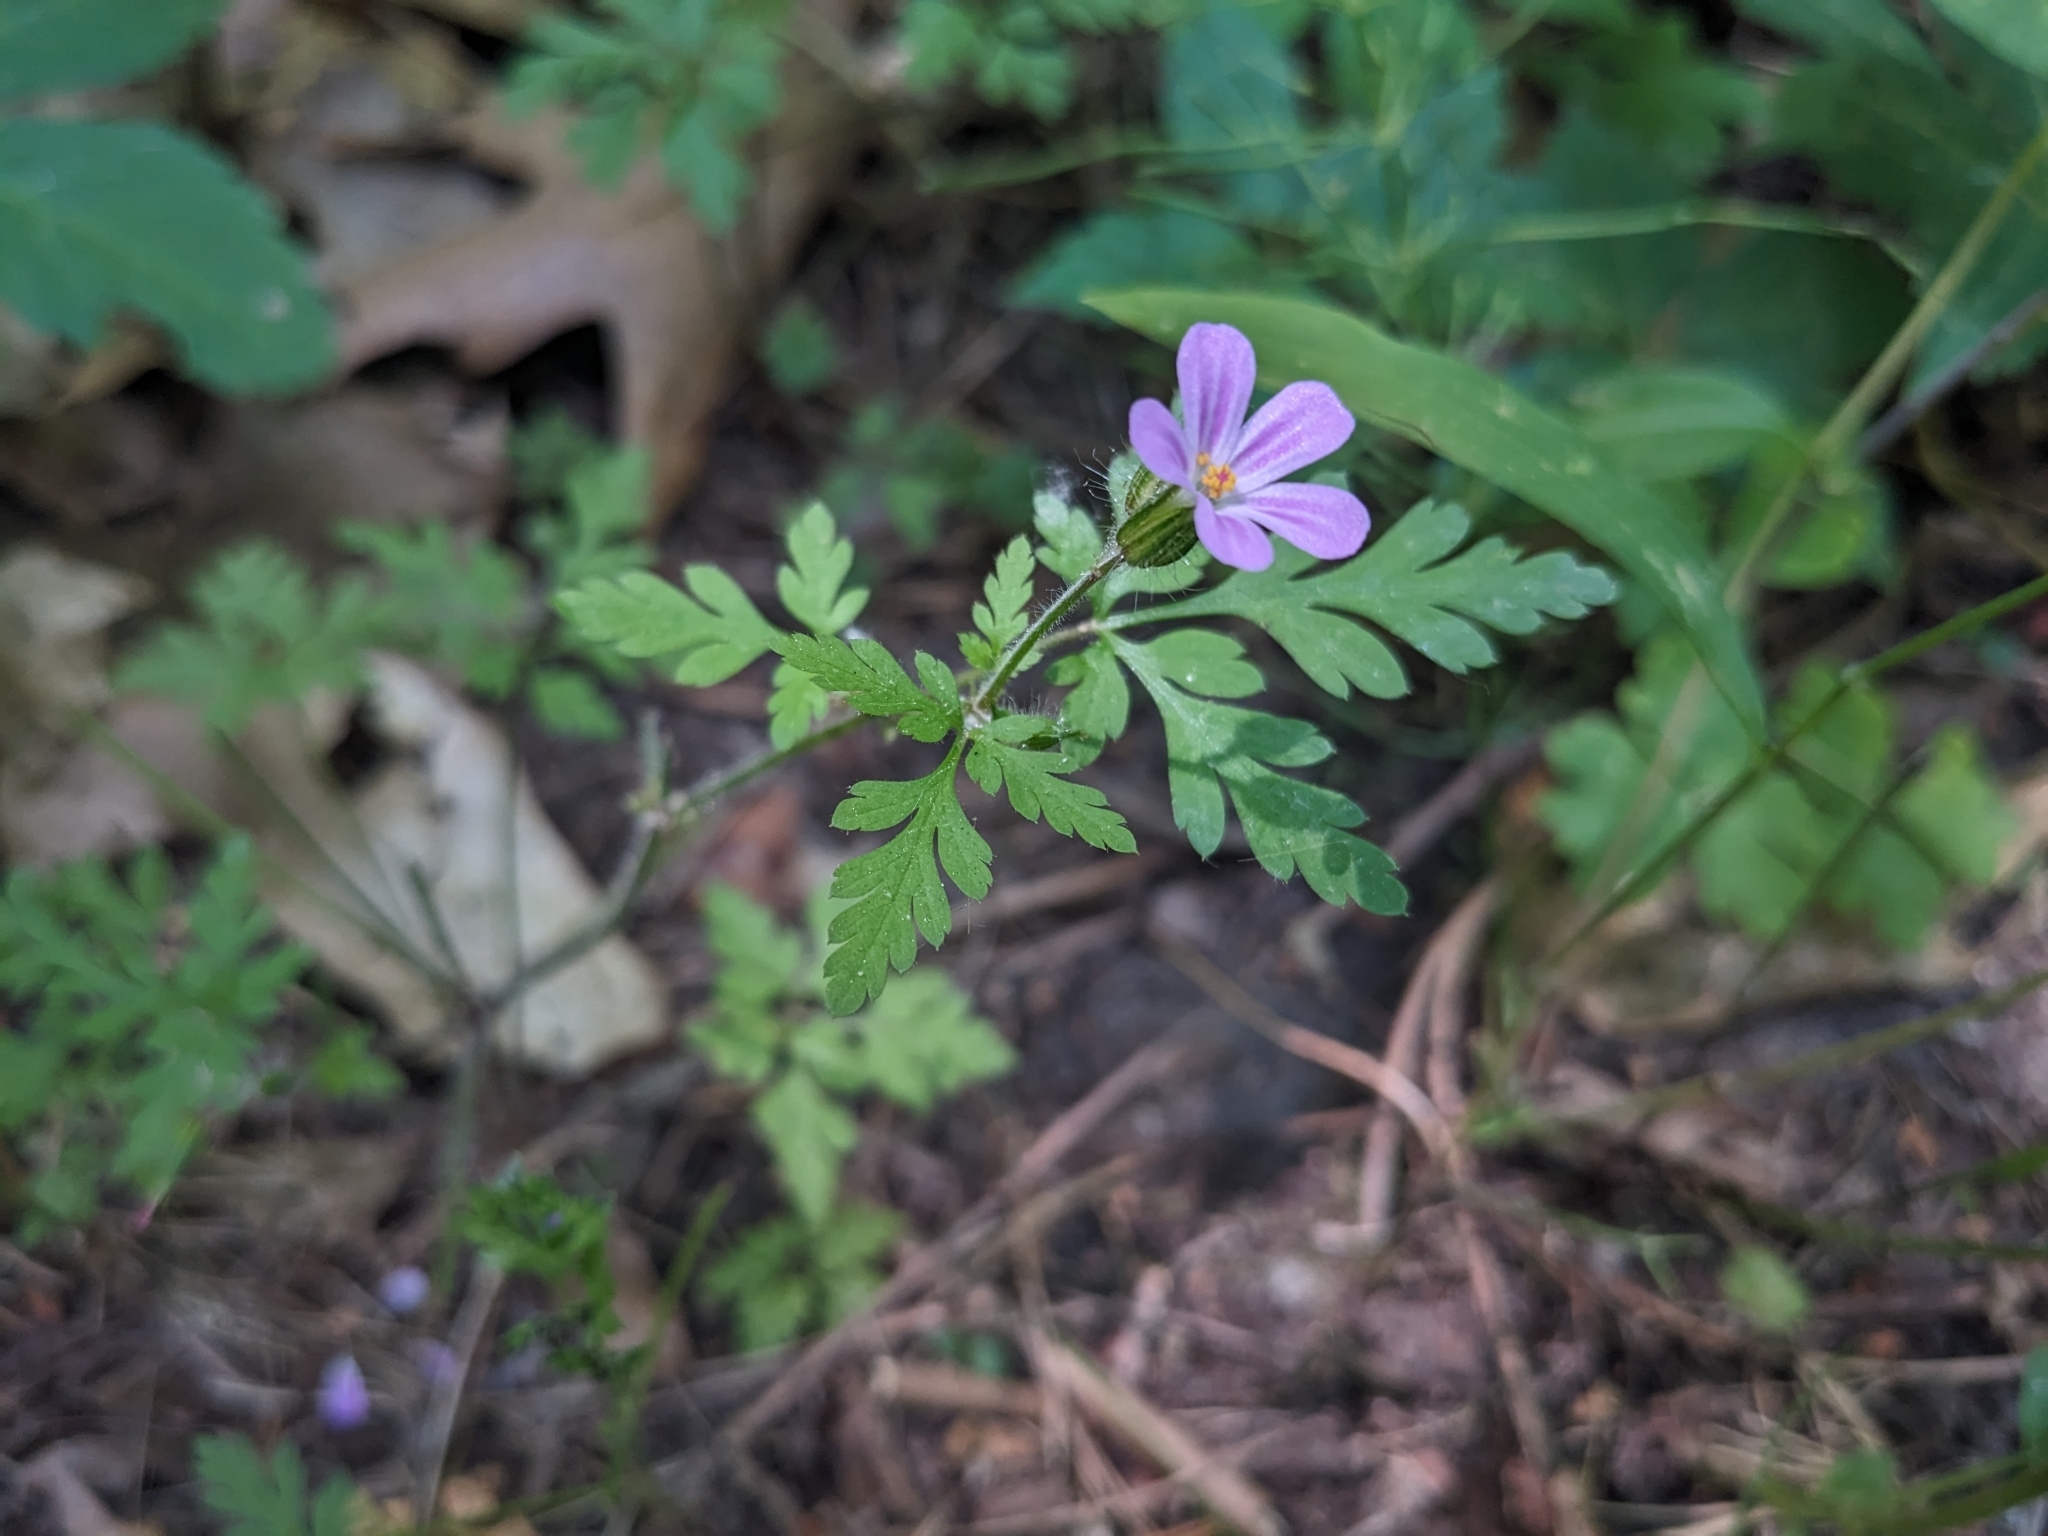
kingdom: Plantae
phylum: Tracheophyta
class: Magnoliopsida
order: Geraniales
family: Geraniaceae
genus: Geranium
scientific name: Geranium robertianum
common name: Herb-robert
